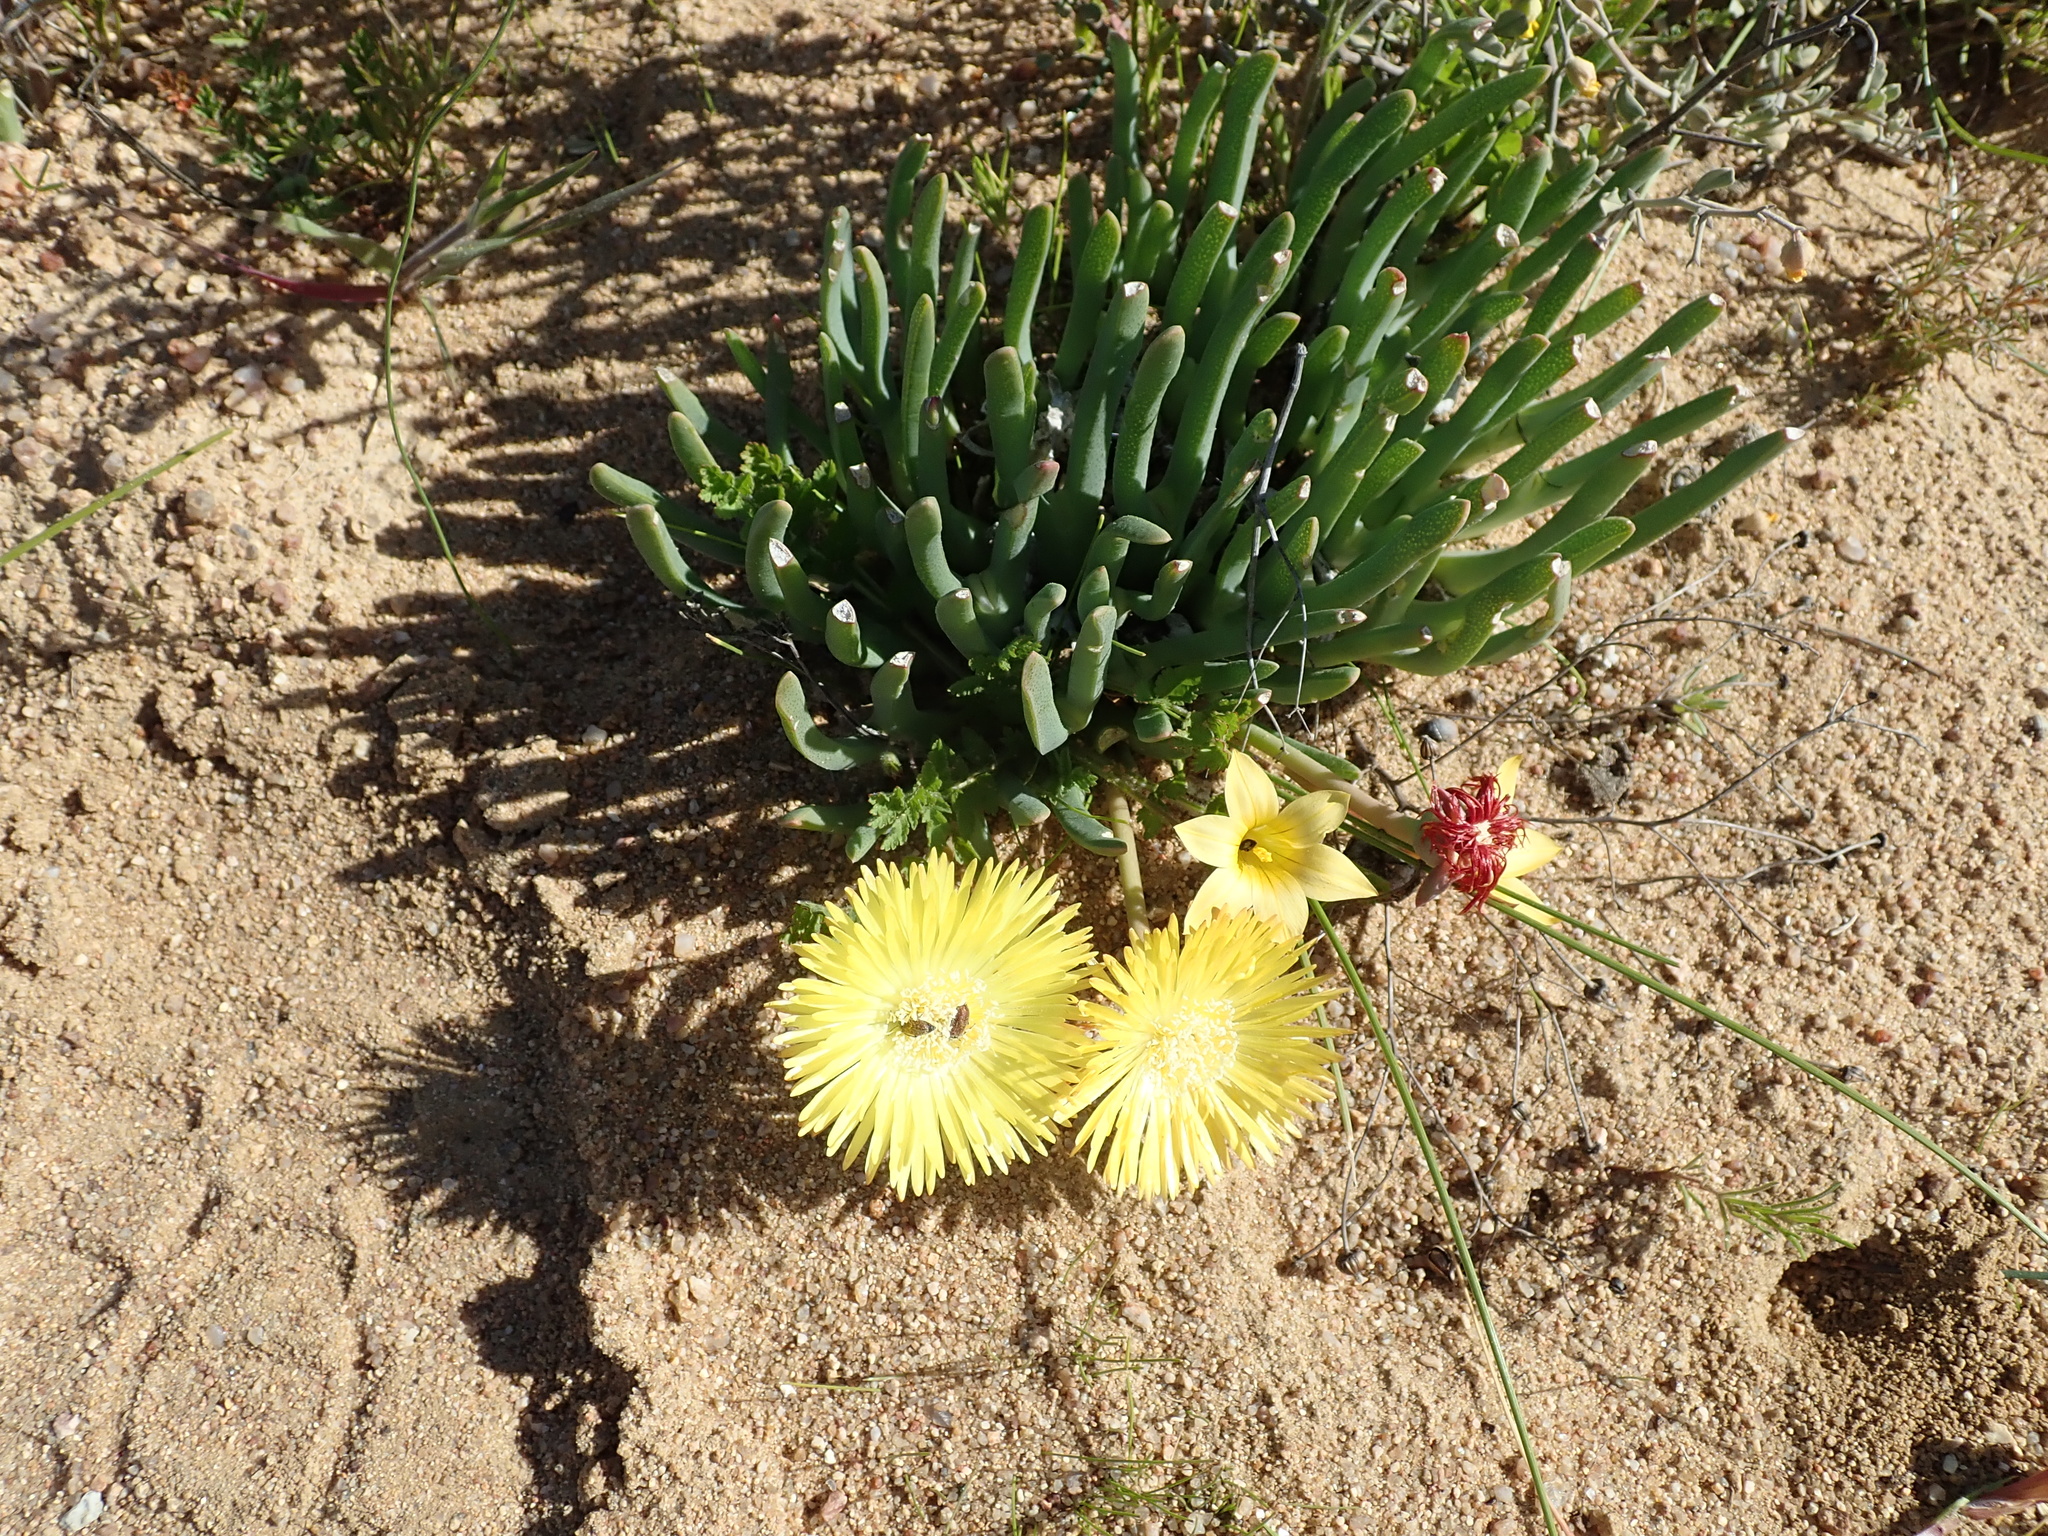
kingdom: Plantae
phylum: Tracheophyta
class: Magnoliopsida
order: Caryophyllales
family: Aizoaceae
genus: Cheiridopsis
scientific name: Cheiridopsis pearsonii
